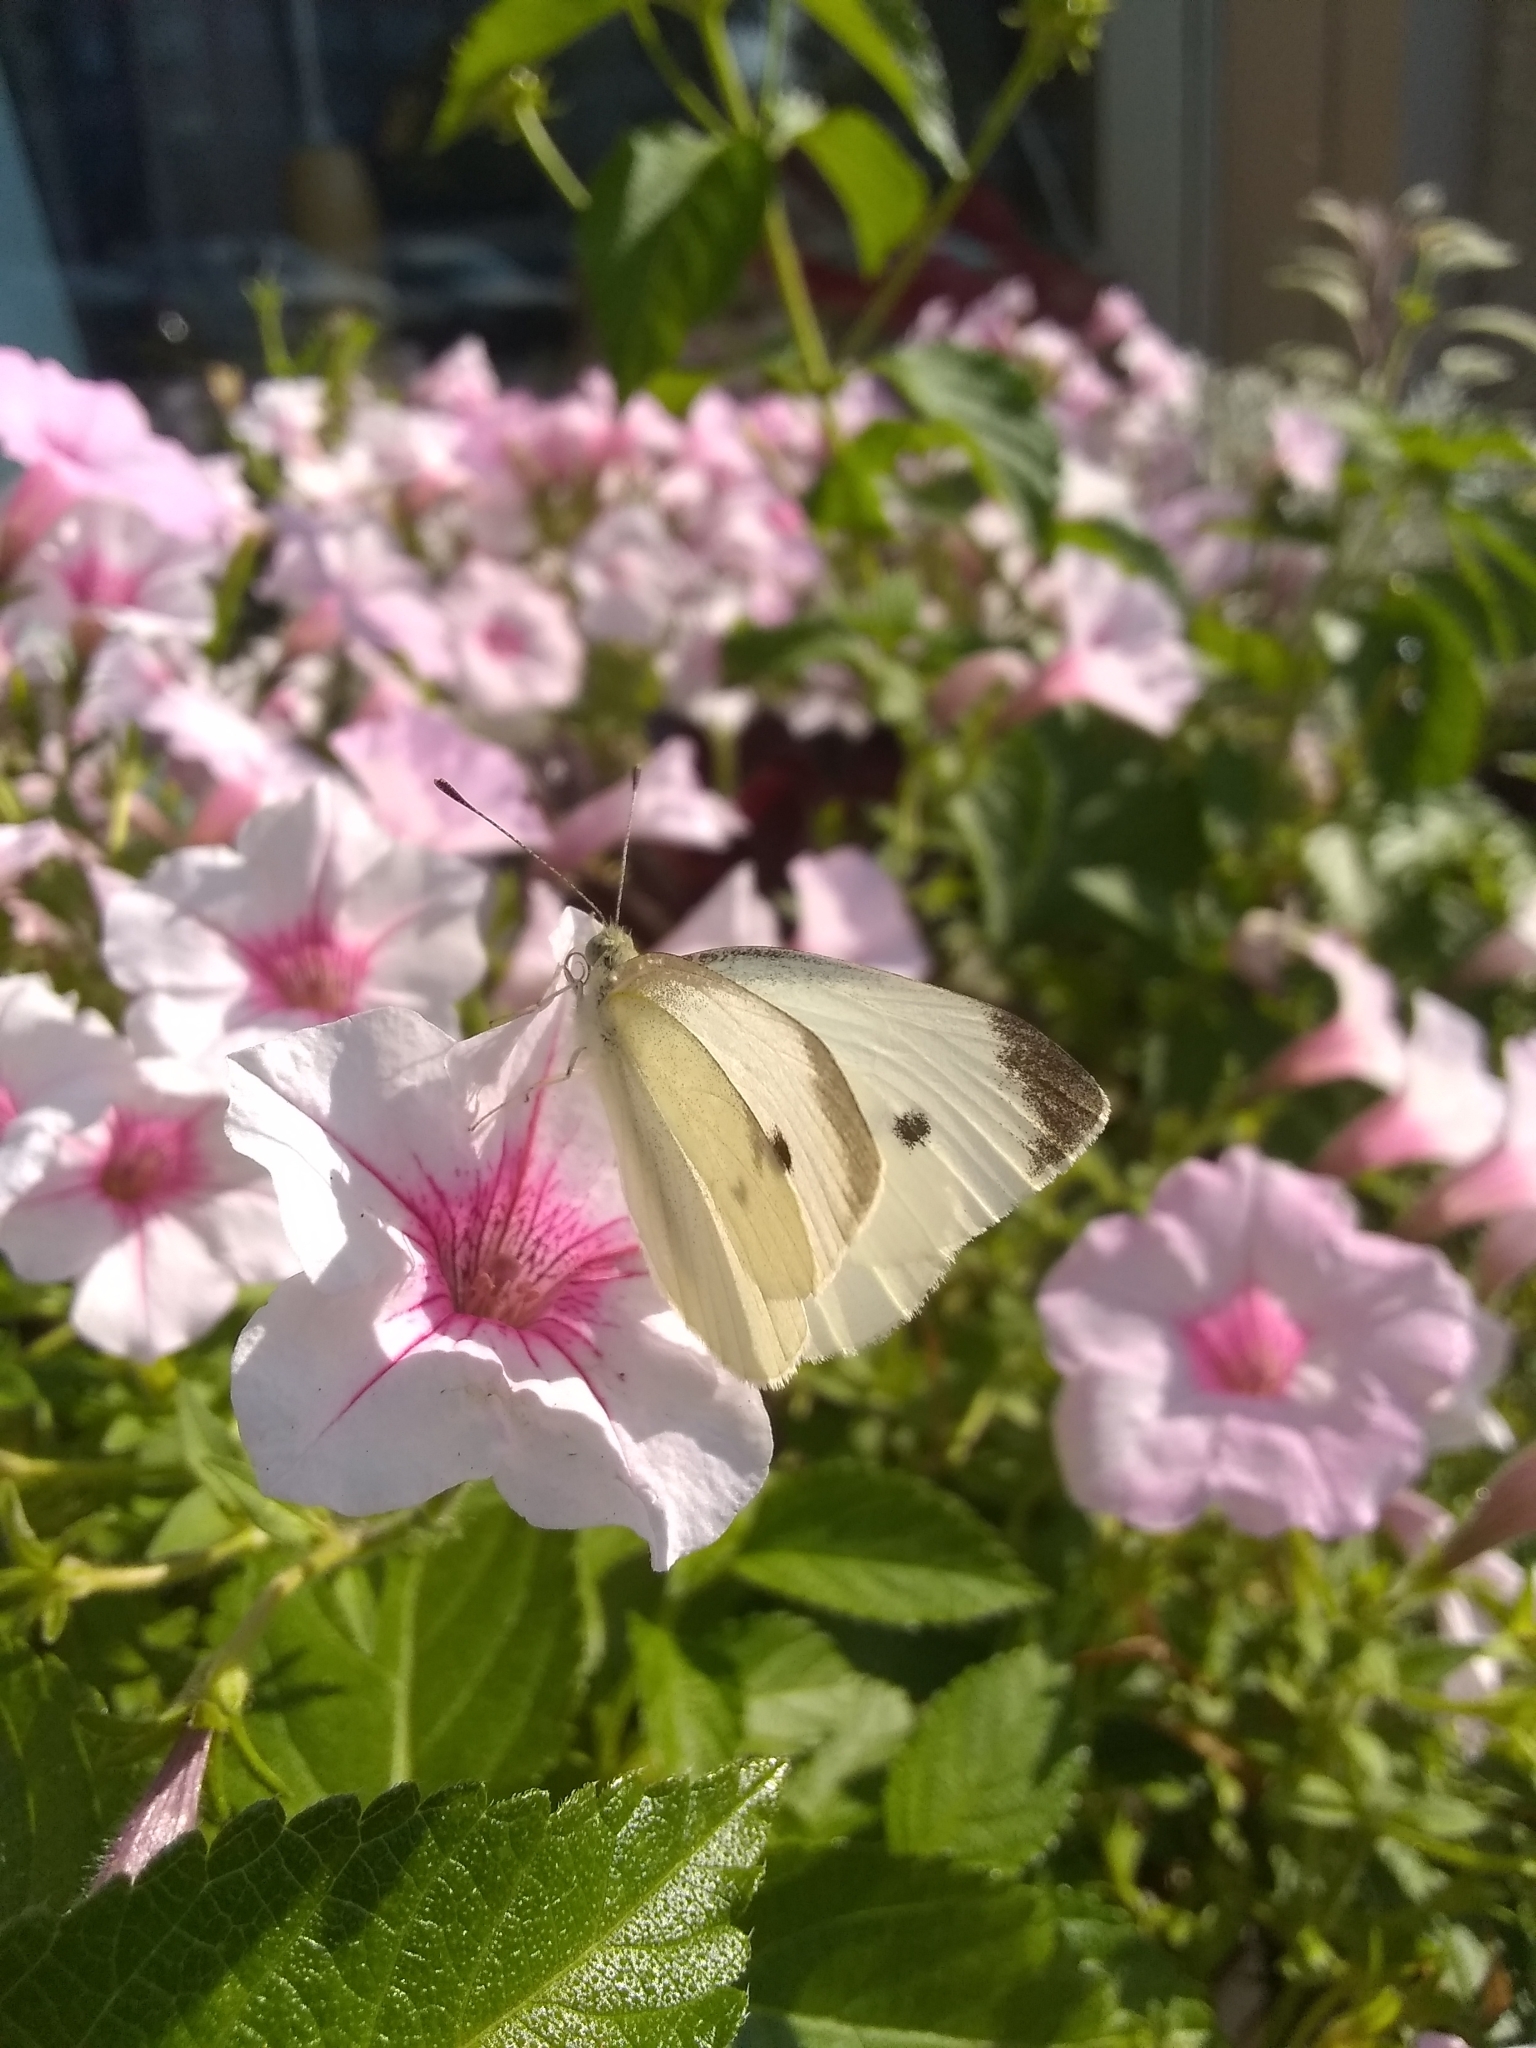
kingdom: Animalia
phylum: Arthropoda
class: Insecta
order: Lepidoptera
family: Pieridae
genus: Pieris
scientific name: Pieris rapae
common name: Small white
